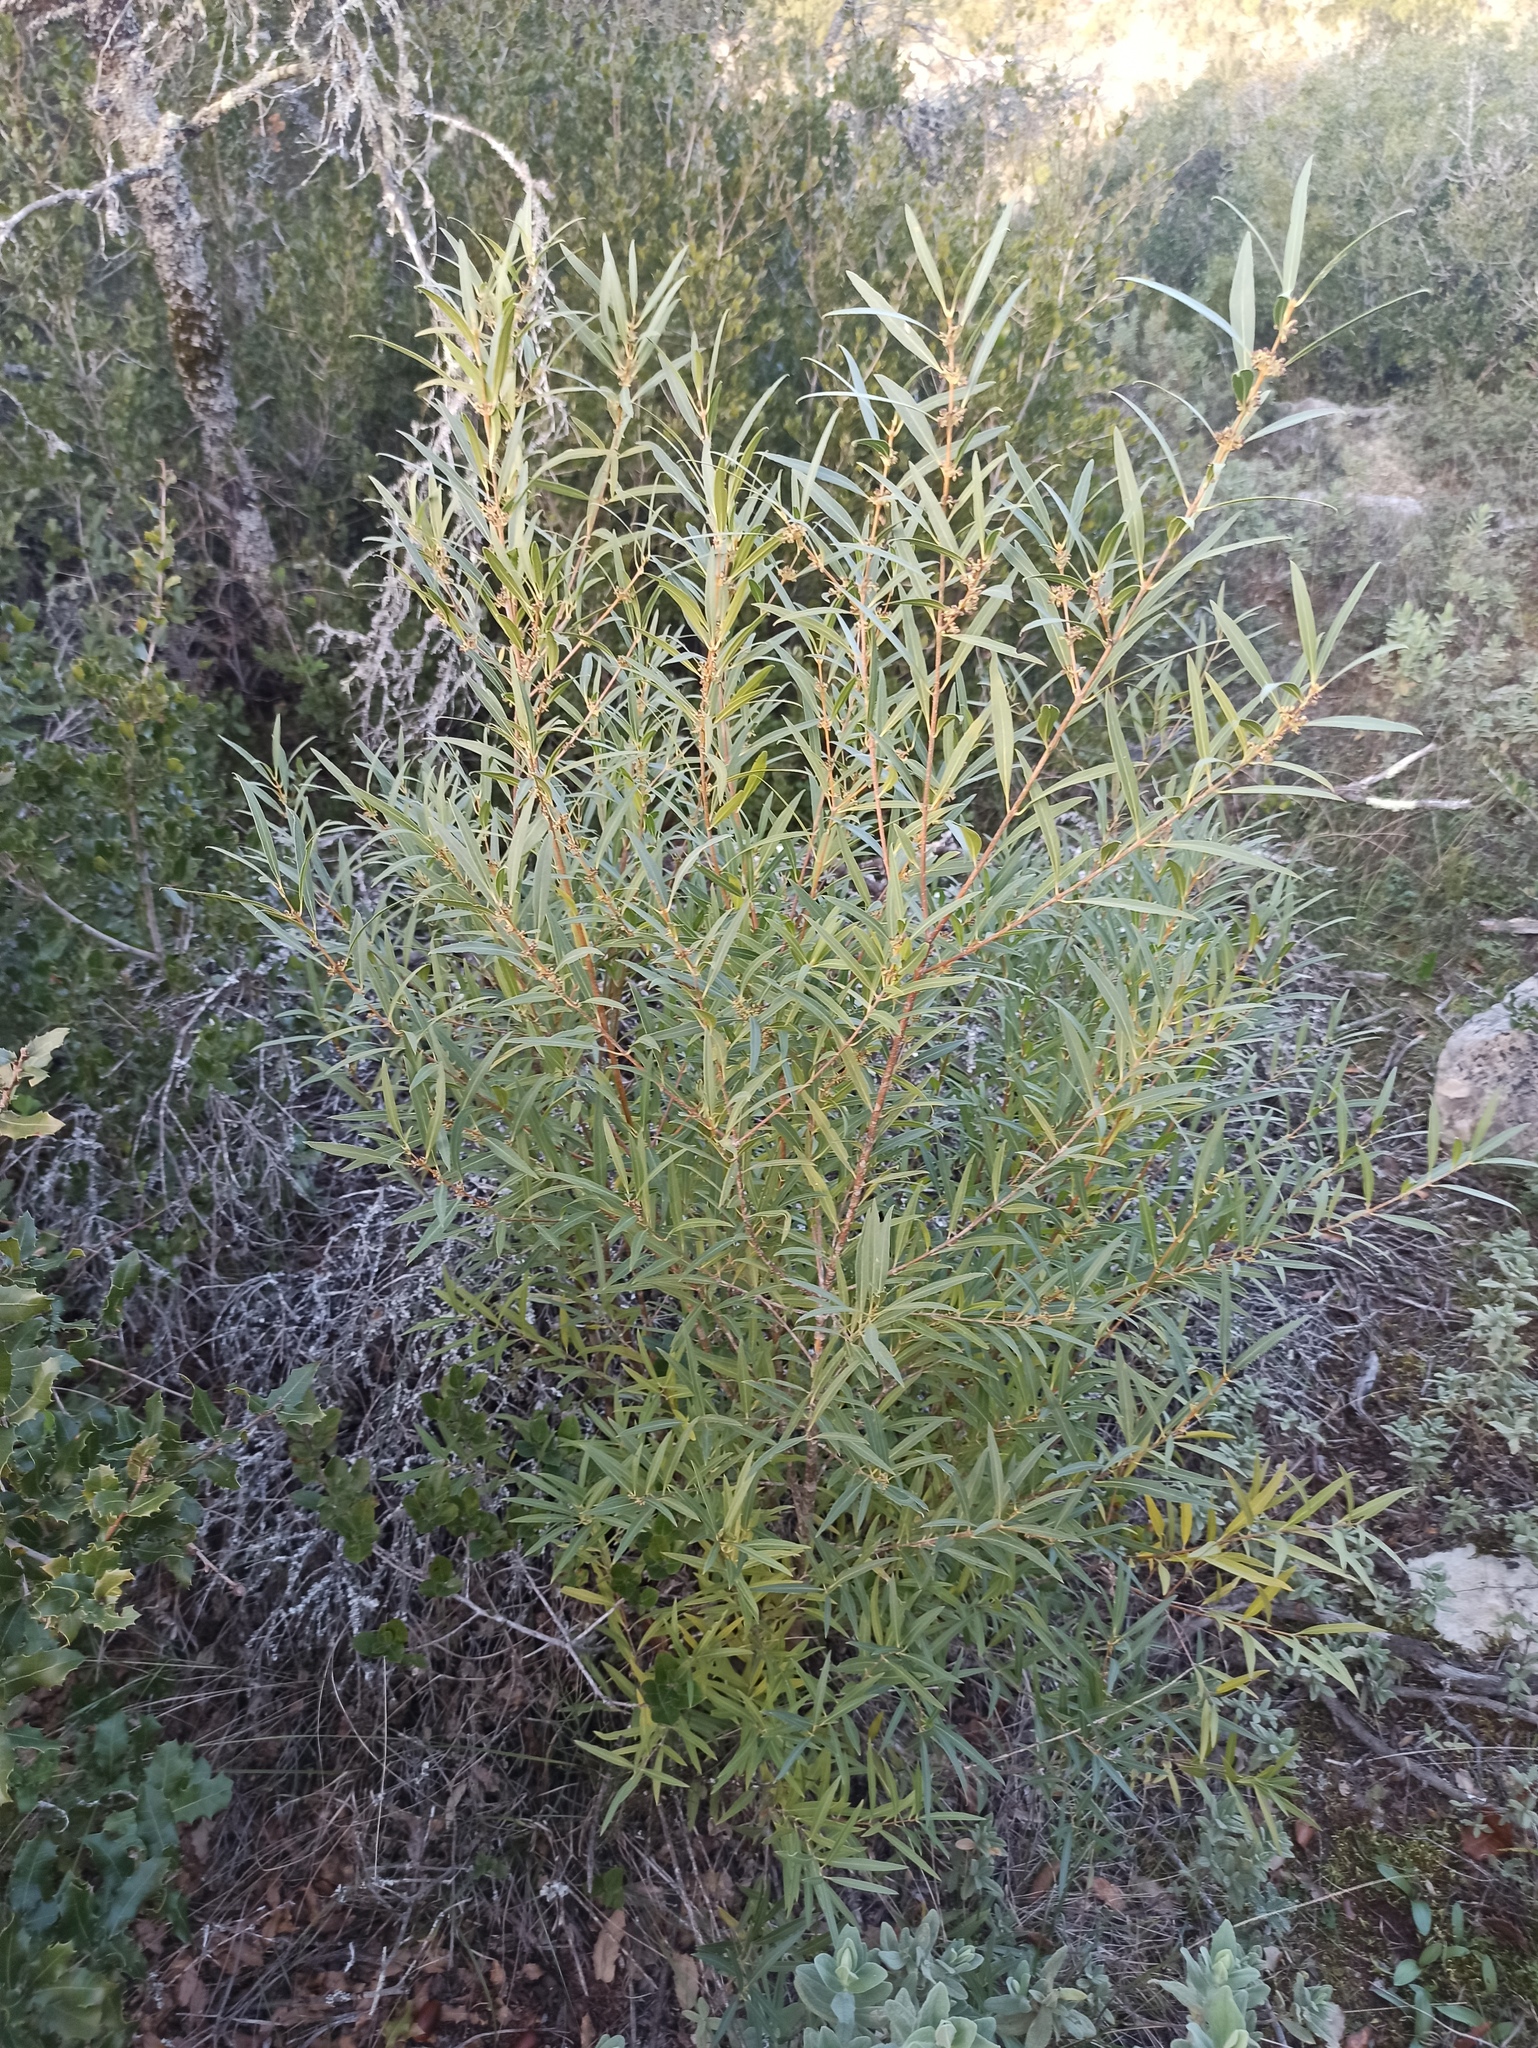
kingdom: Plantae
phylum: Tracheophyta
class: Magnoliopsida
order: Lamiales
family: Oleaceae
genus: Phillyrea
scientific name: Phillyrea angustifolia
